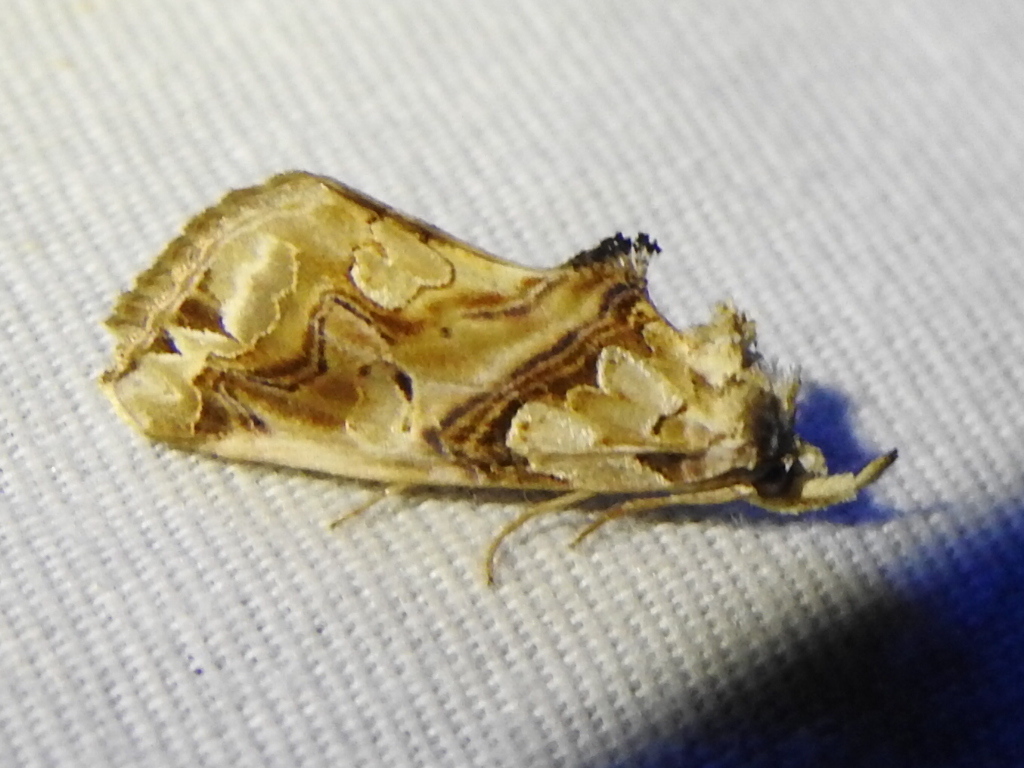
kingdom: Animalia
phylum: Arthropoda
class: Insecta
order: Lepidoptera
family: Erebidae
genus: Plusiodonta
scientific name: Plusiodonta compressipalpis
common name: Moonseed moth
